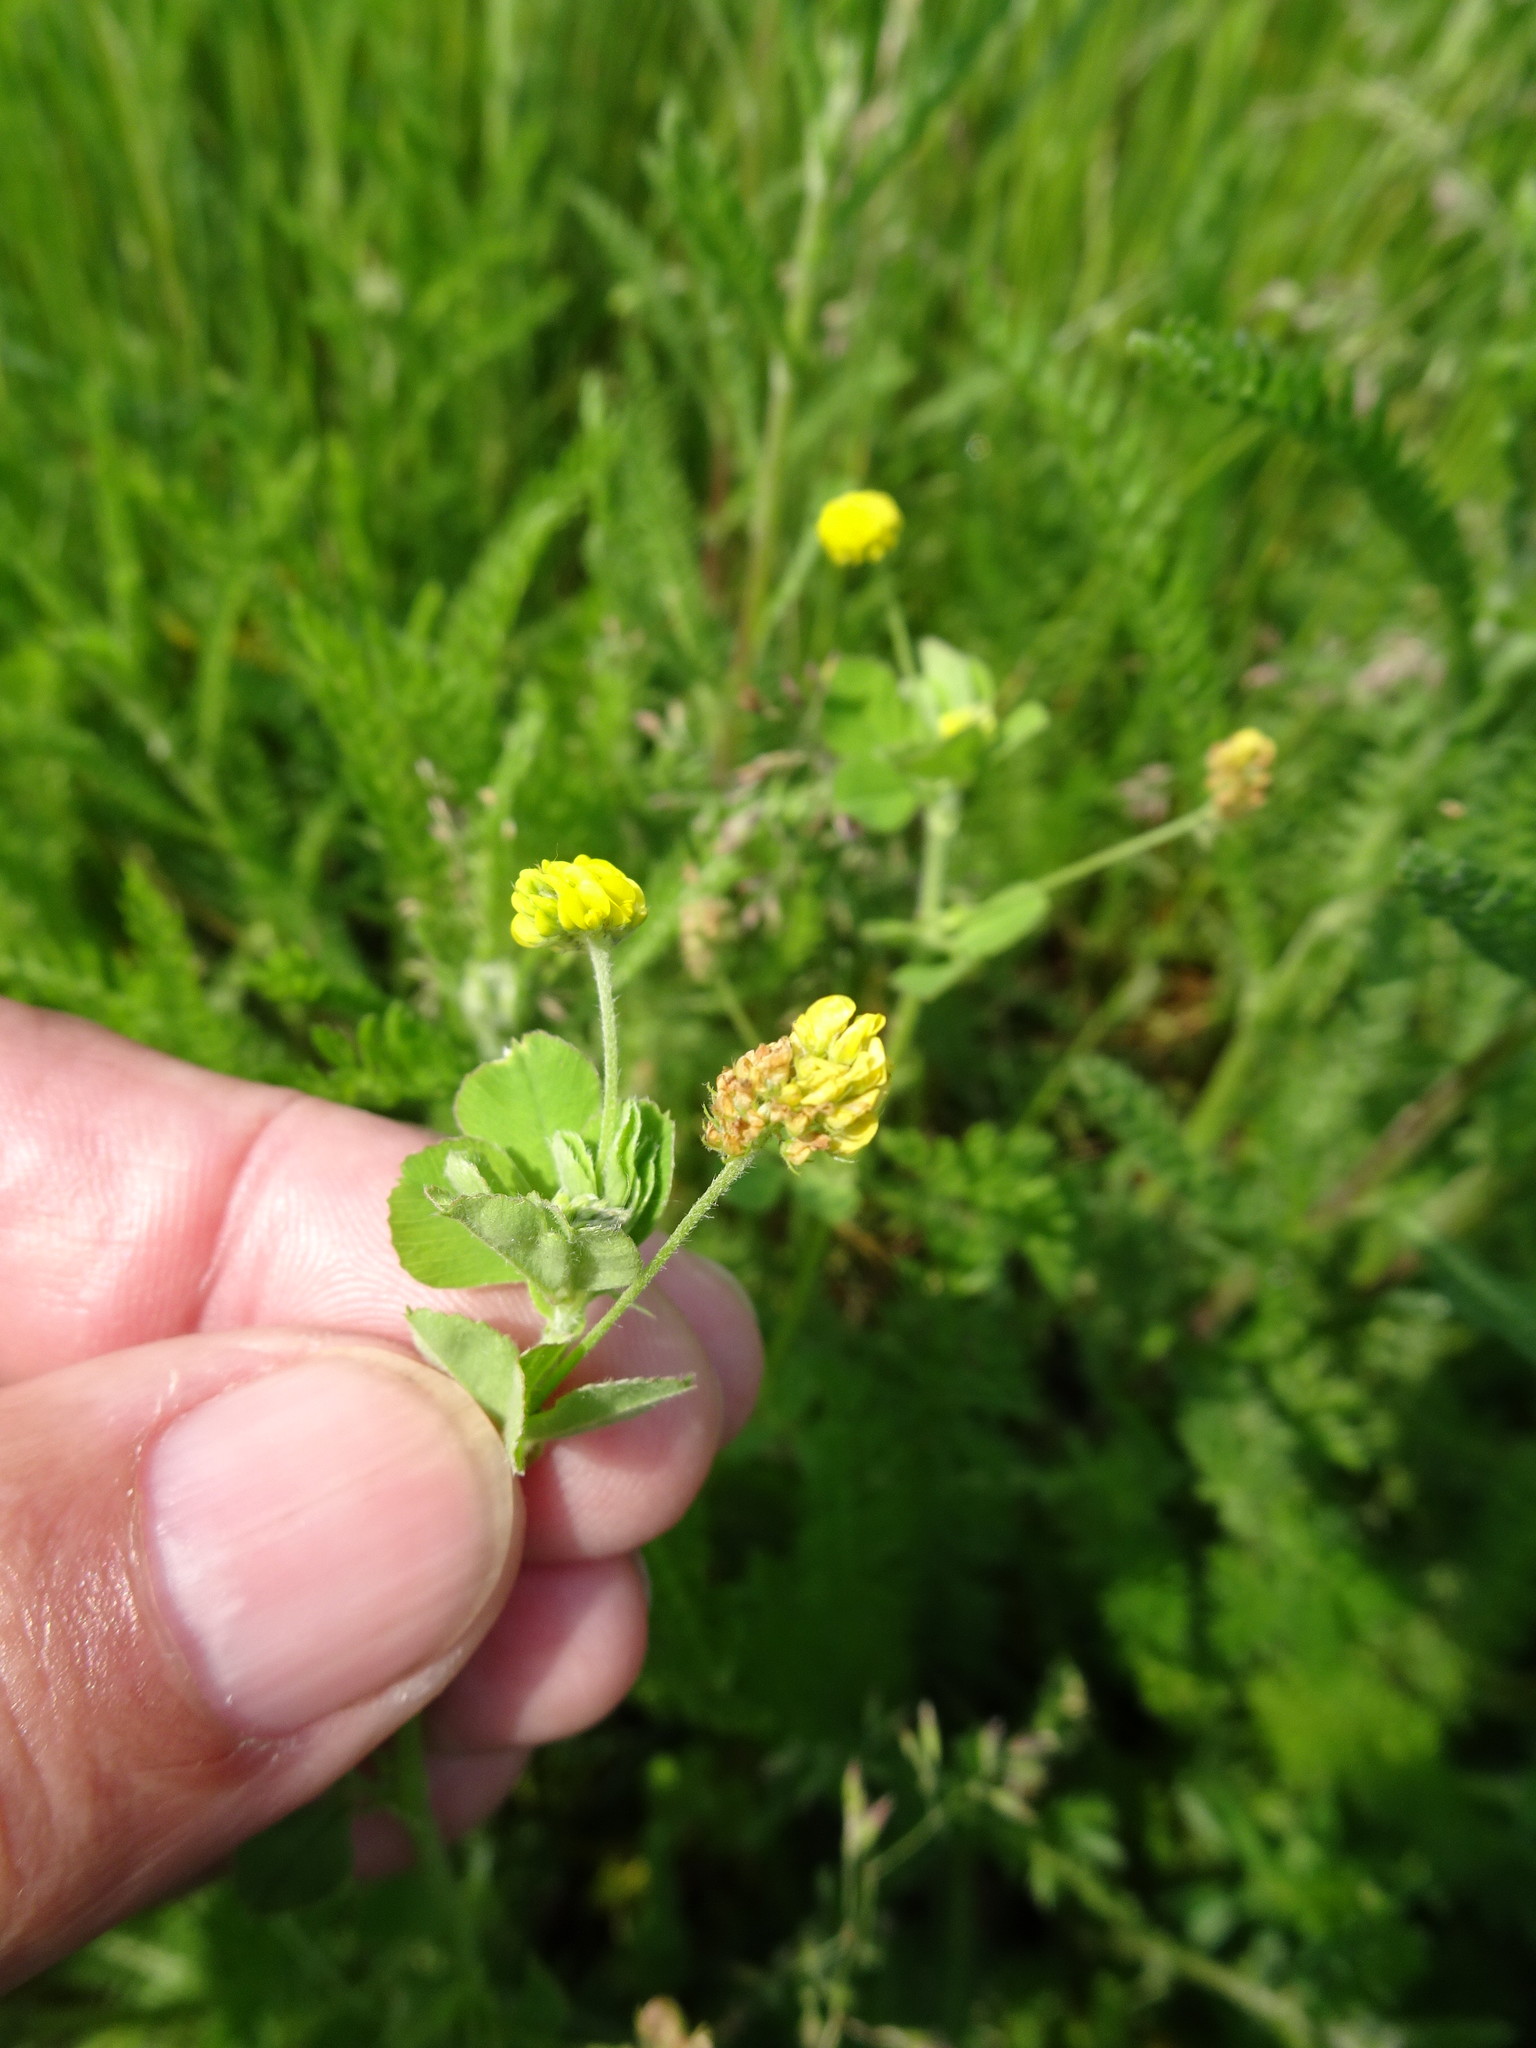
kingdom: Plantae
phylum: Tracheophyta
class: Magnoliopsida
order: Fabales
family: Fabaceae
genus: Medicago
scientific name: Medicago lupulina
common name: Black medick
